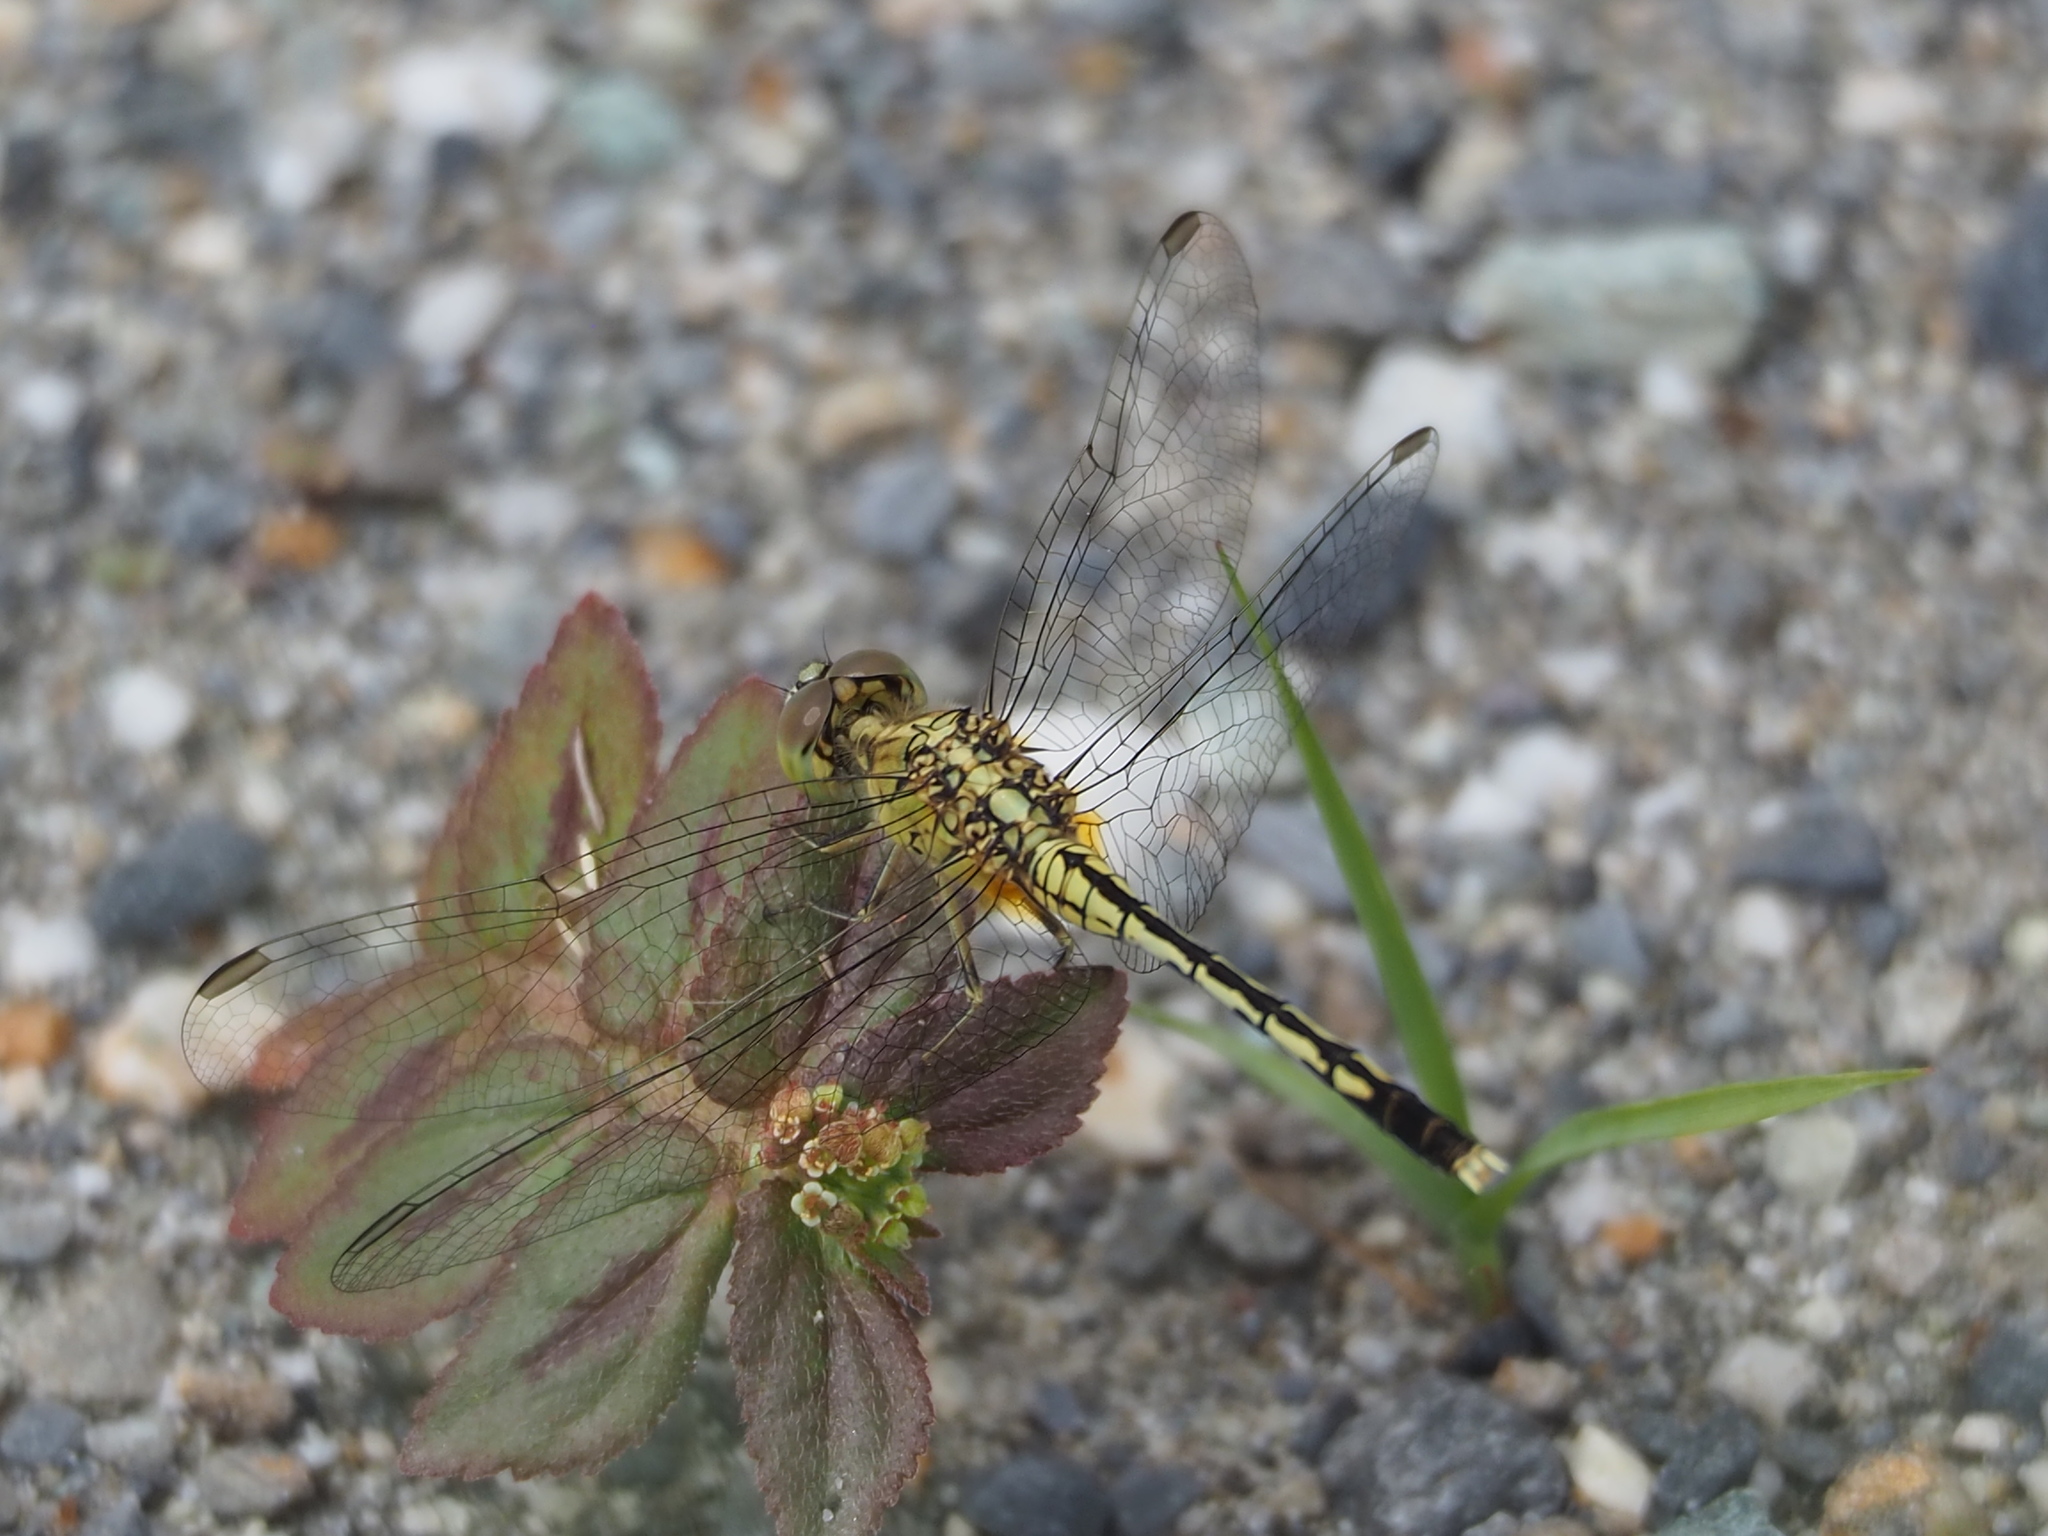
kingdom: Animalia
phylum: Arthropoda
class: Insecta
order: Odonata
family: Libellulidae
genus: Diplacodes
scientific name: Diplacodes trivialis
